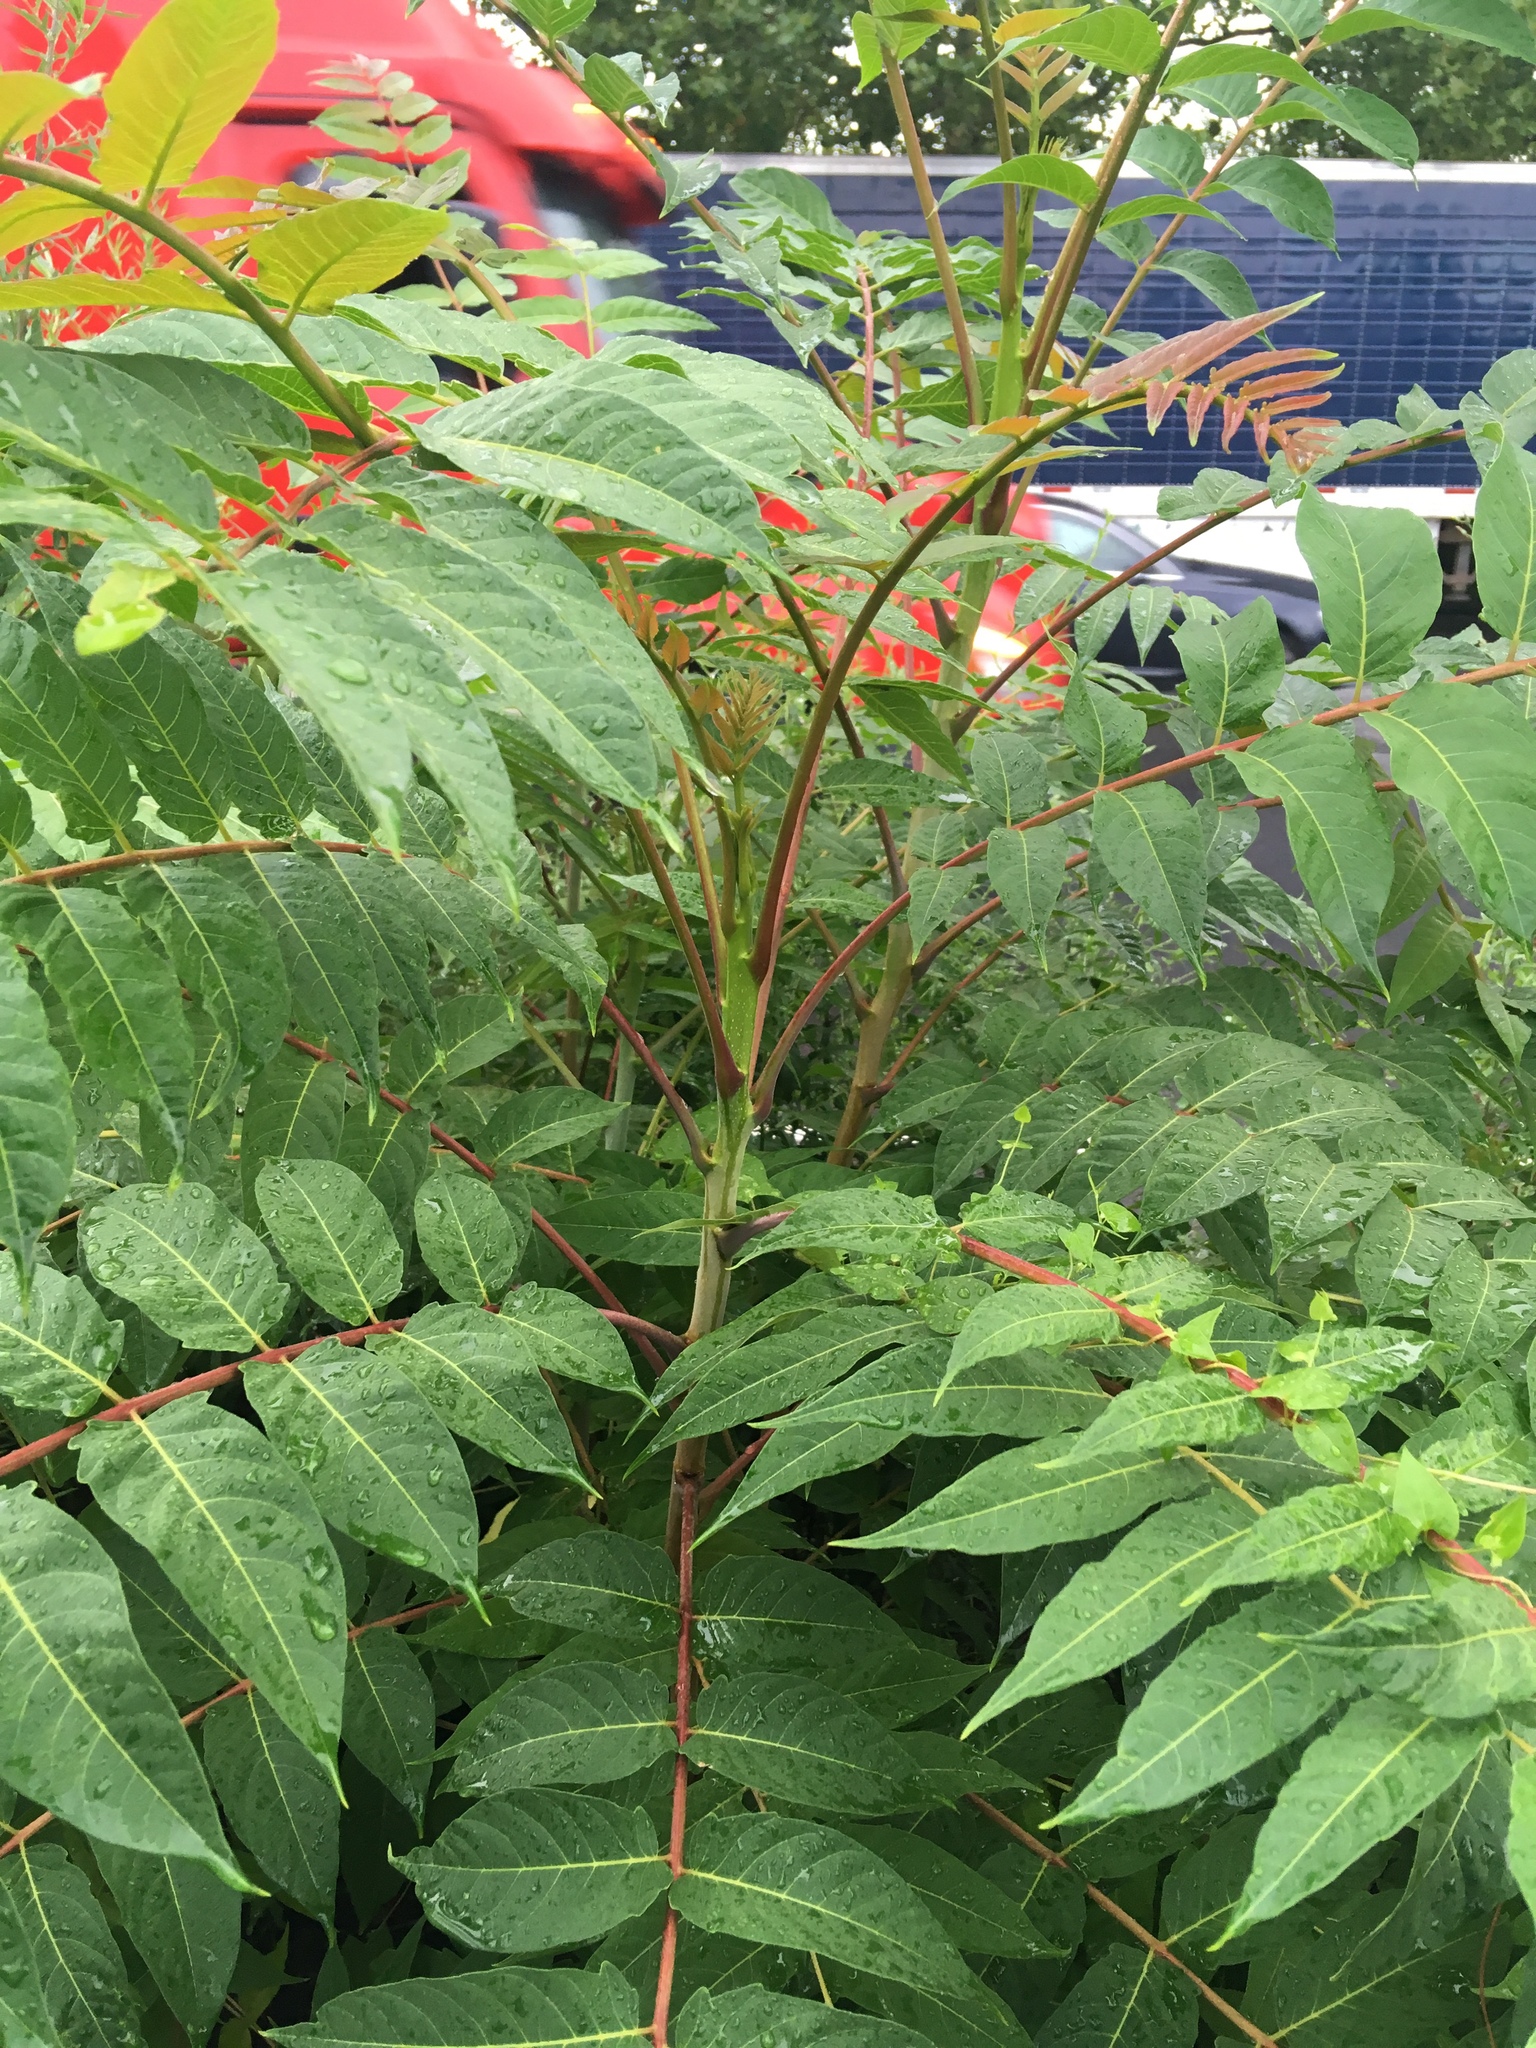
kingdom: Plantae
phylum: Tracheophyta
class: Magnoliopsida
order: Sapindales
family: Simaroubaceae
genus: Ailanthus
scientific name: Ailanthus altissima
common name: Tree-of-heaven
